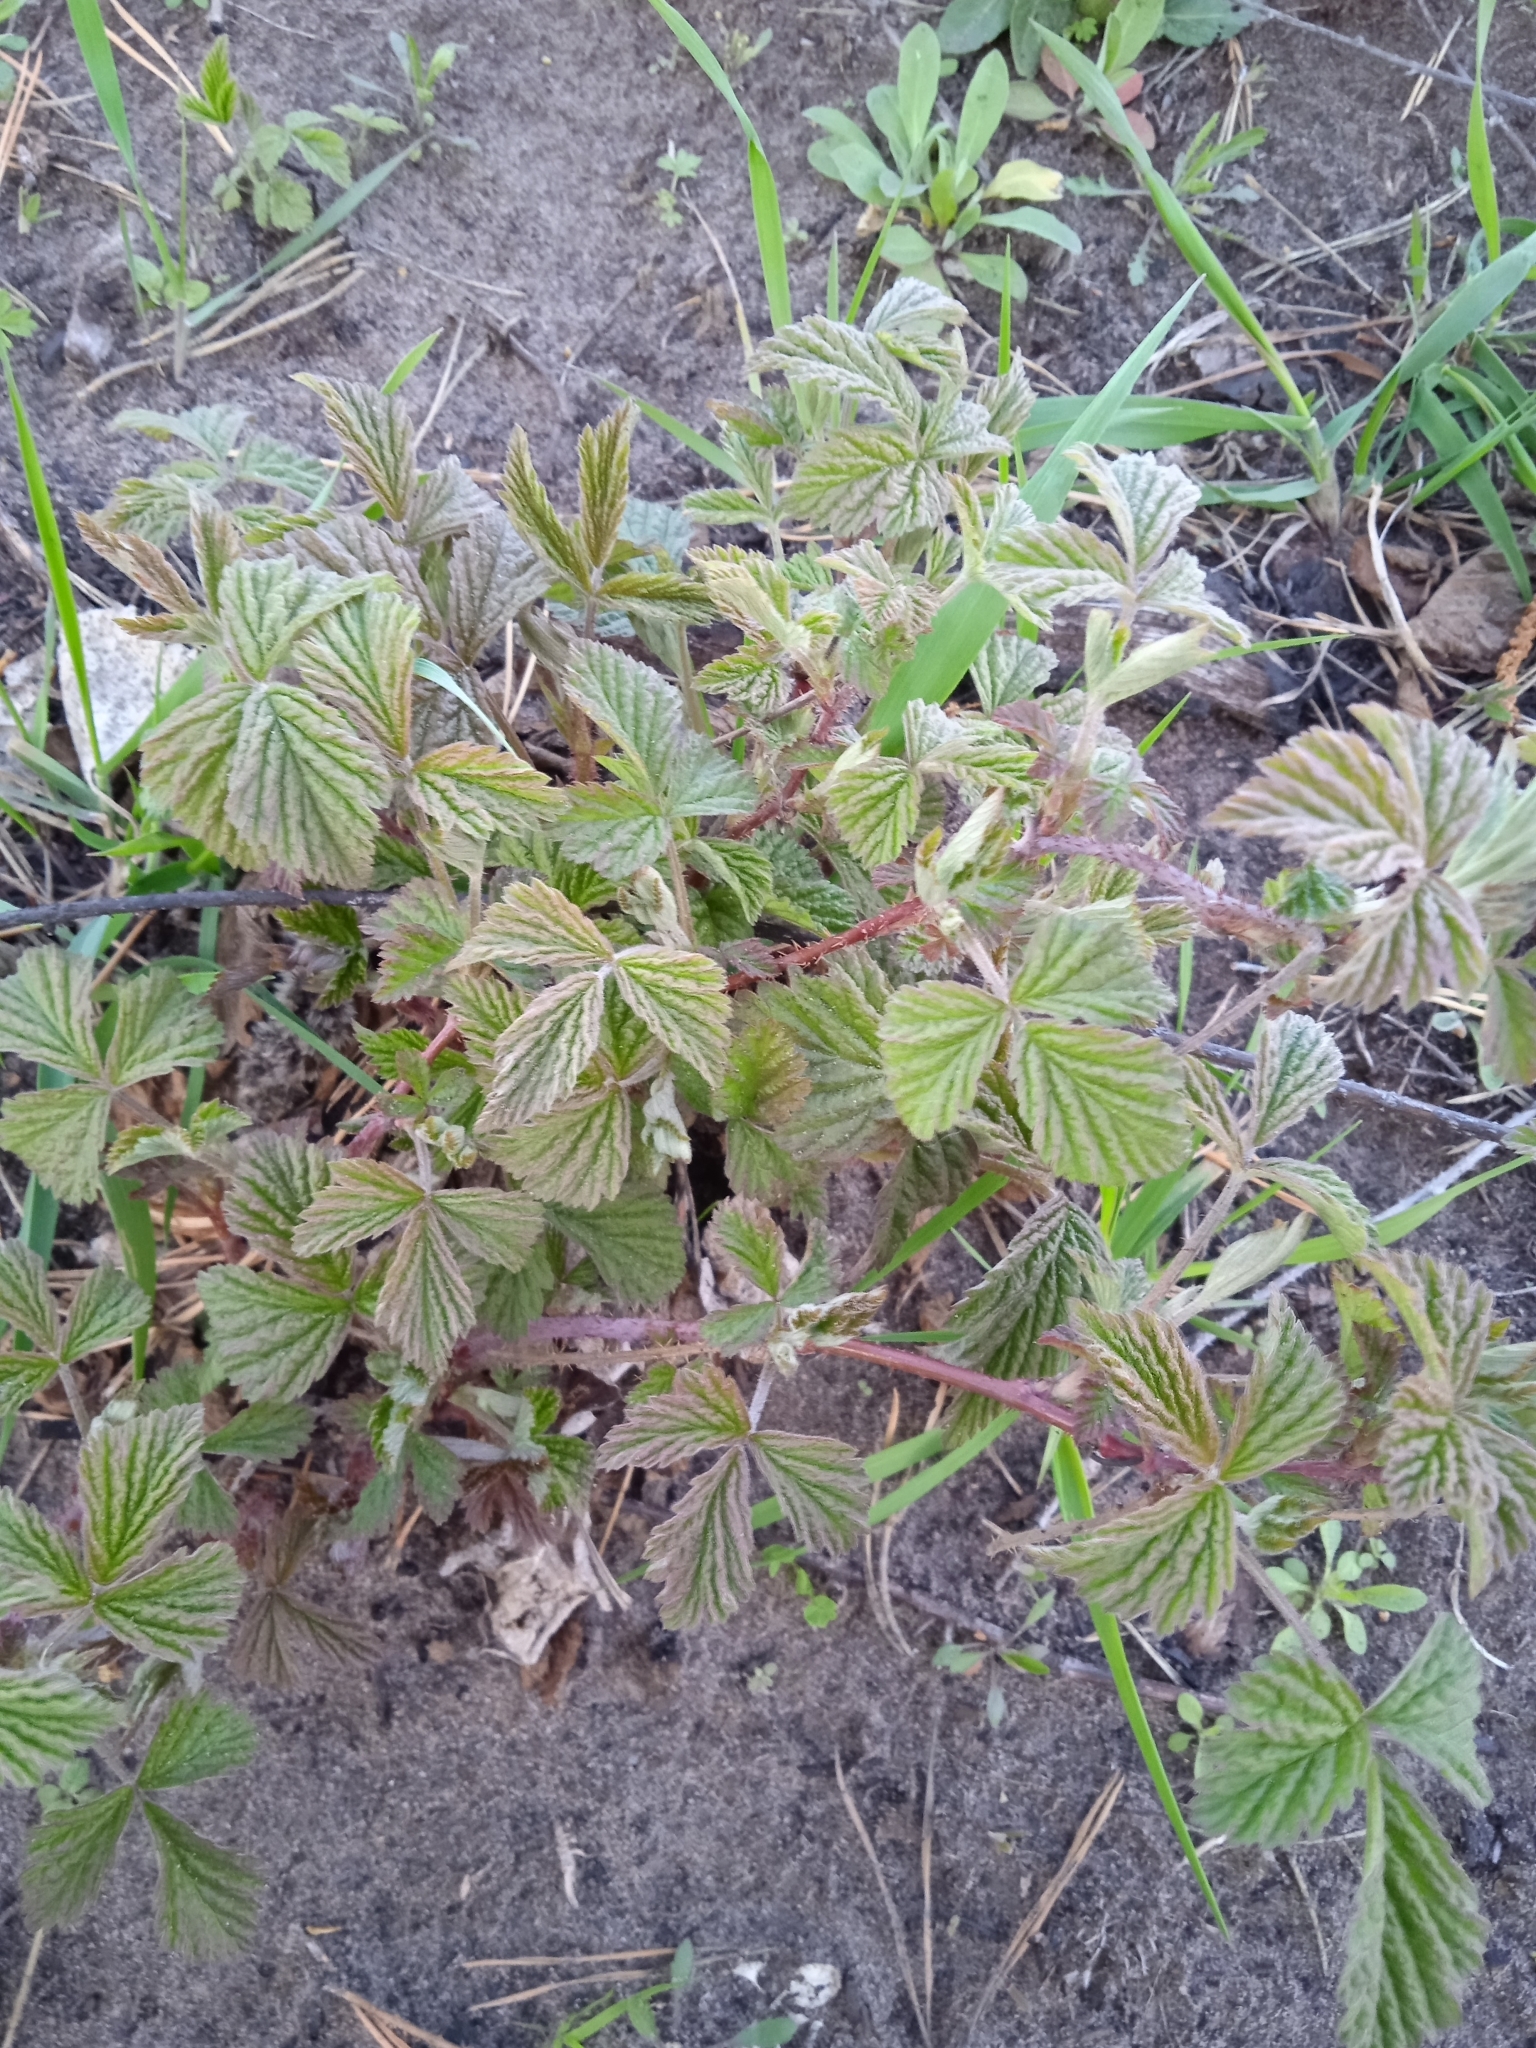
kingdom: Plantae
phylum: Tracheophyta
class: Magnoliopsida
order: Rosales
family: Rosaceae
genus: Rubus
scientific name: Rubus idaeus
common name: Raspberry
